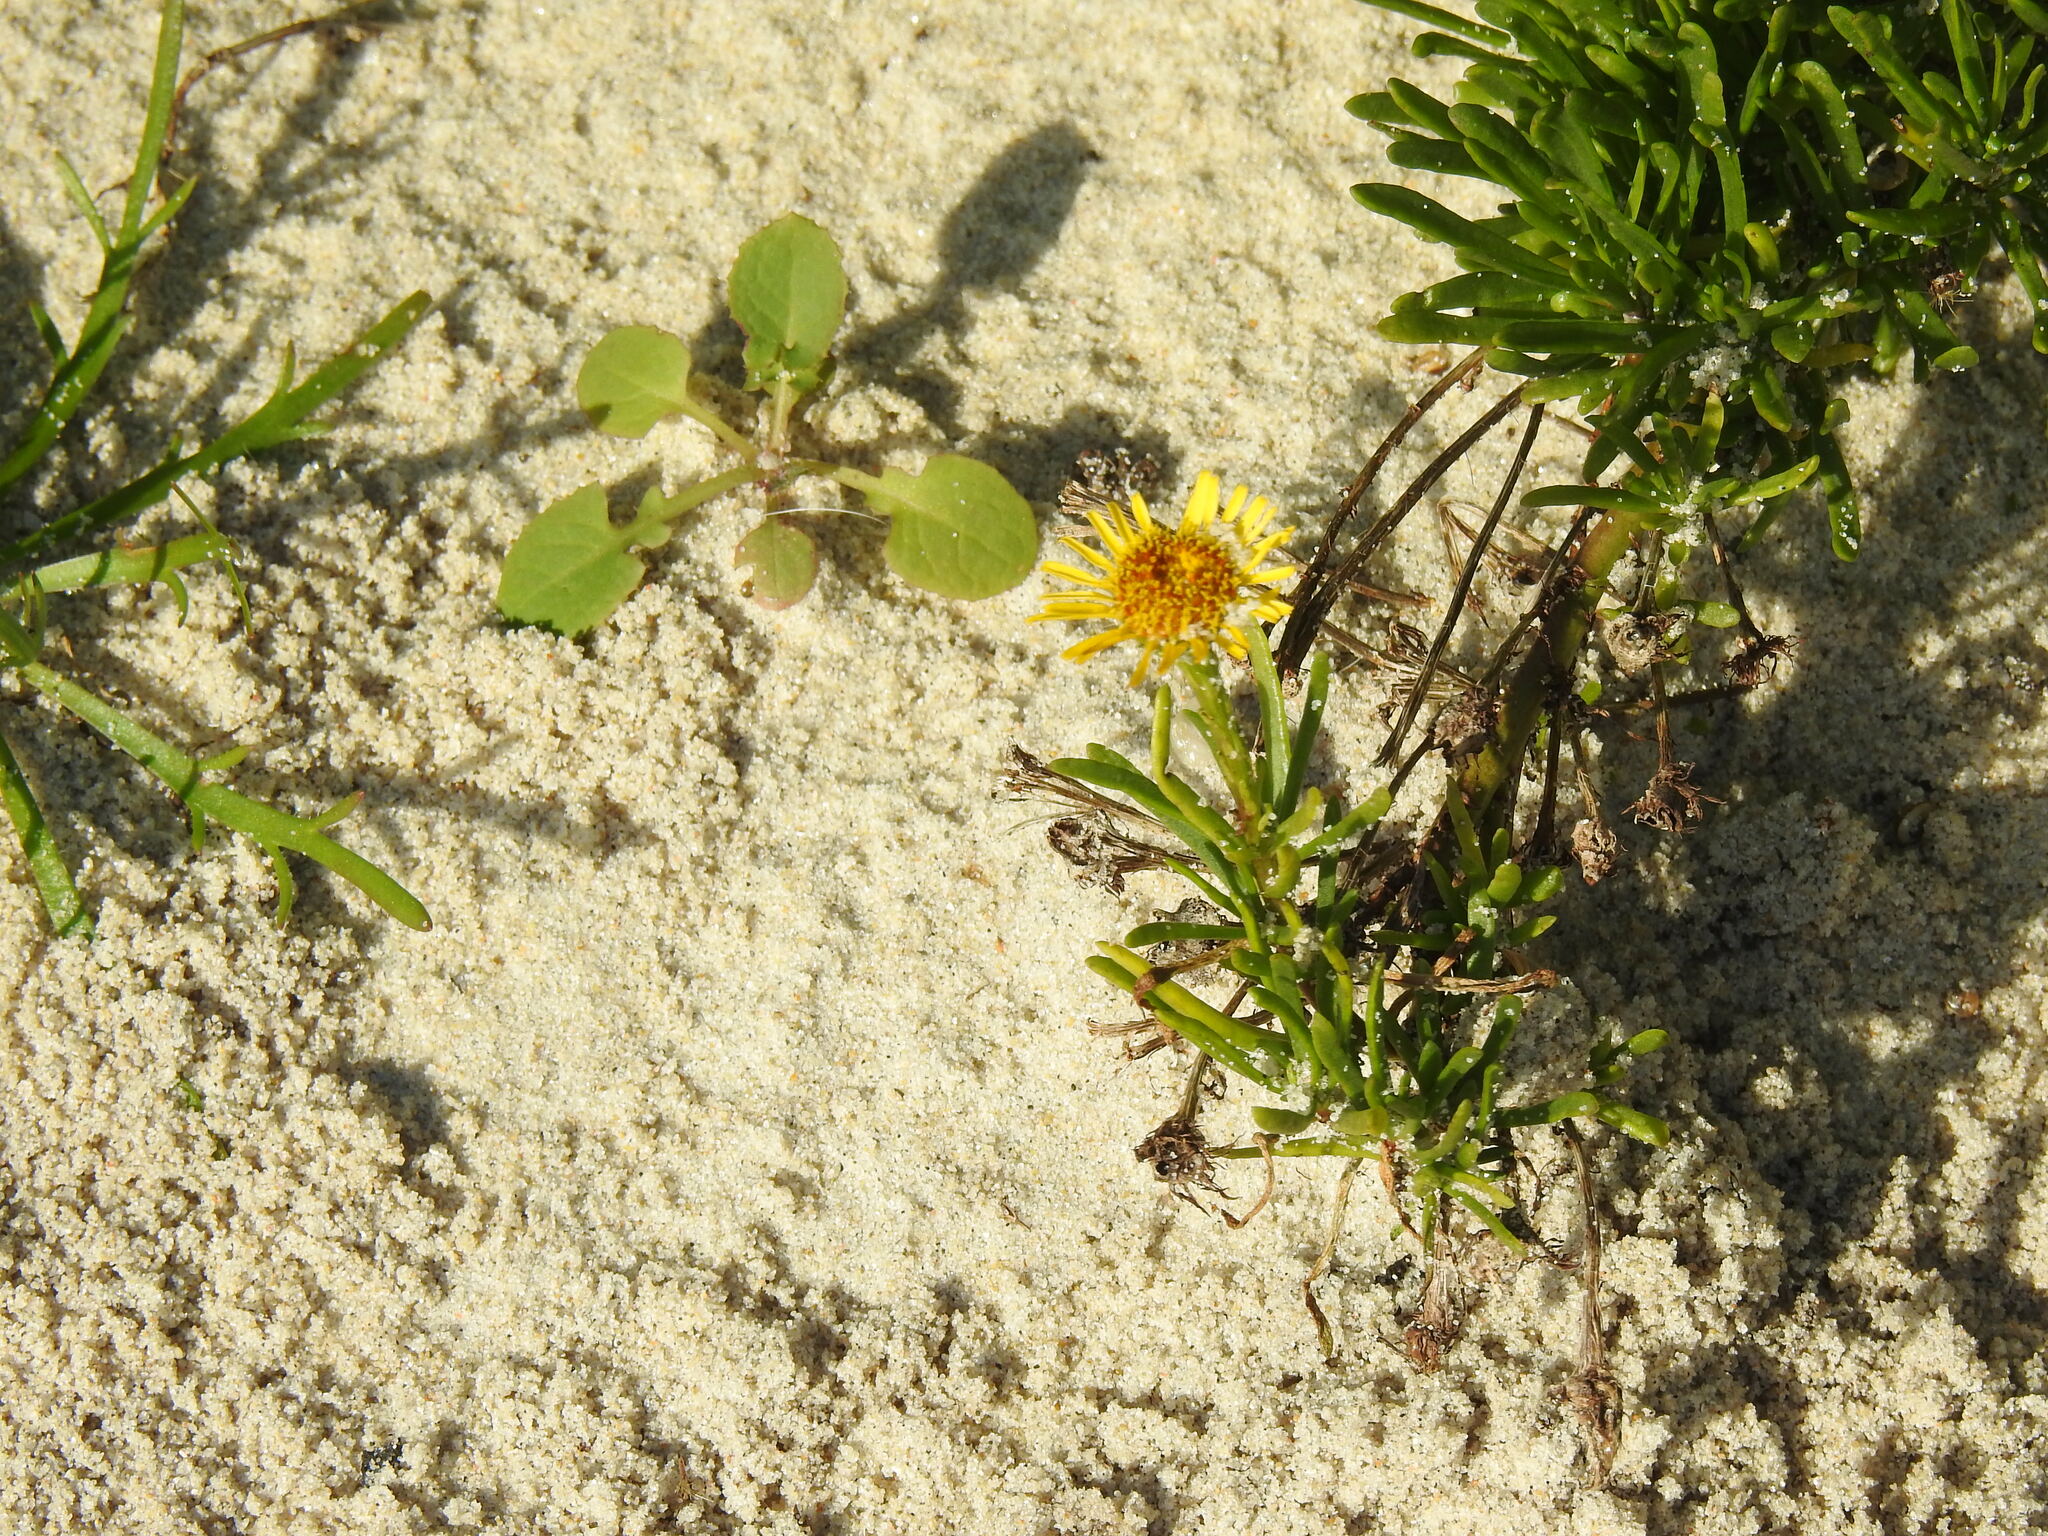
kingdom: Plantae
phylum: Tracheophyta
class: Magnoliopsida
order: Asterales
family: Asteraceae
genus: Limbarda
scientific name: Limbarda crithmoides
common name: Golden samphire
